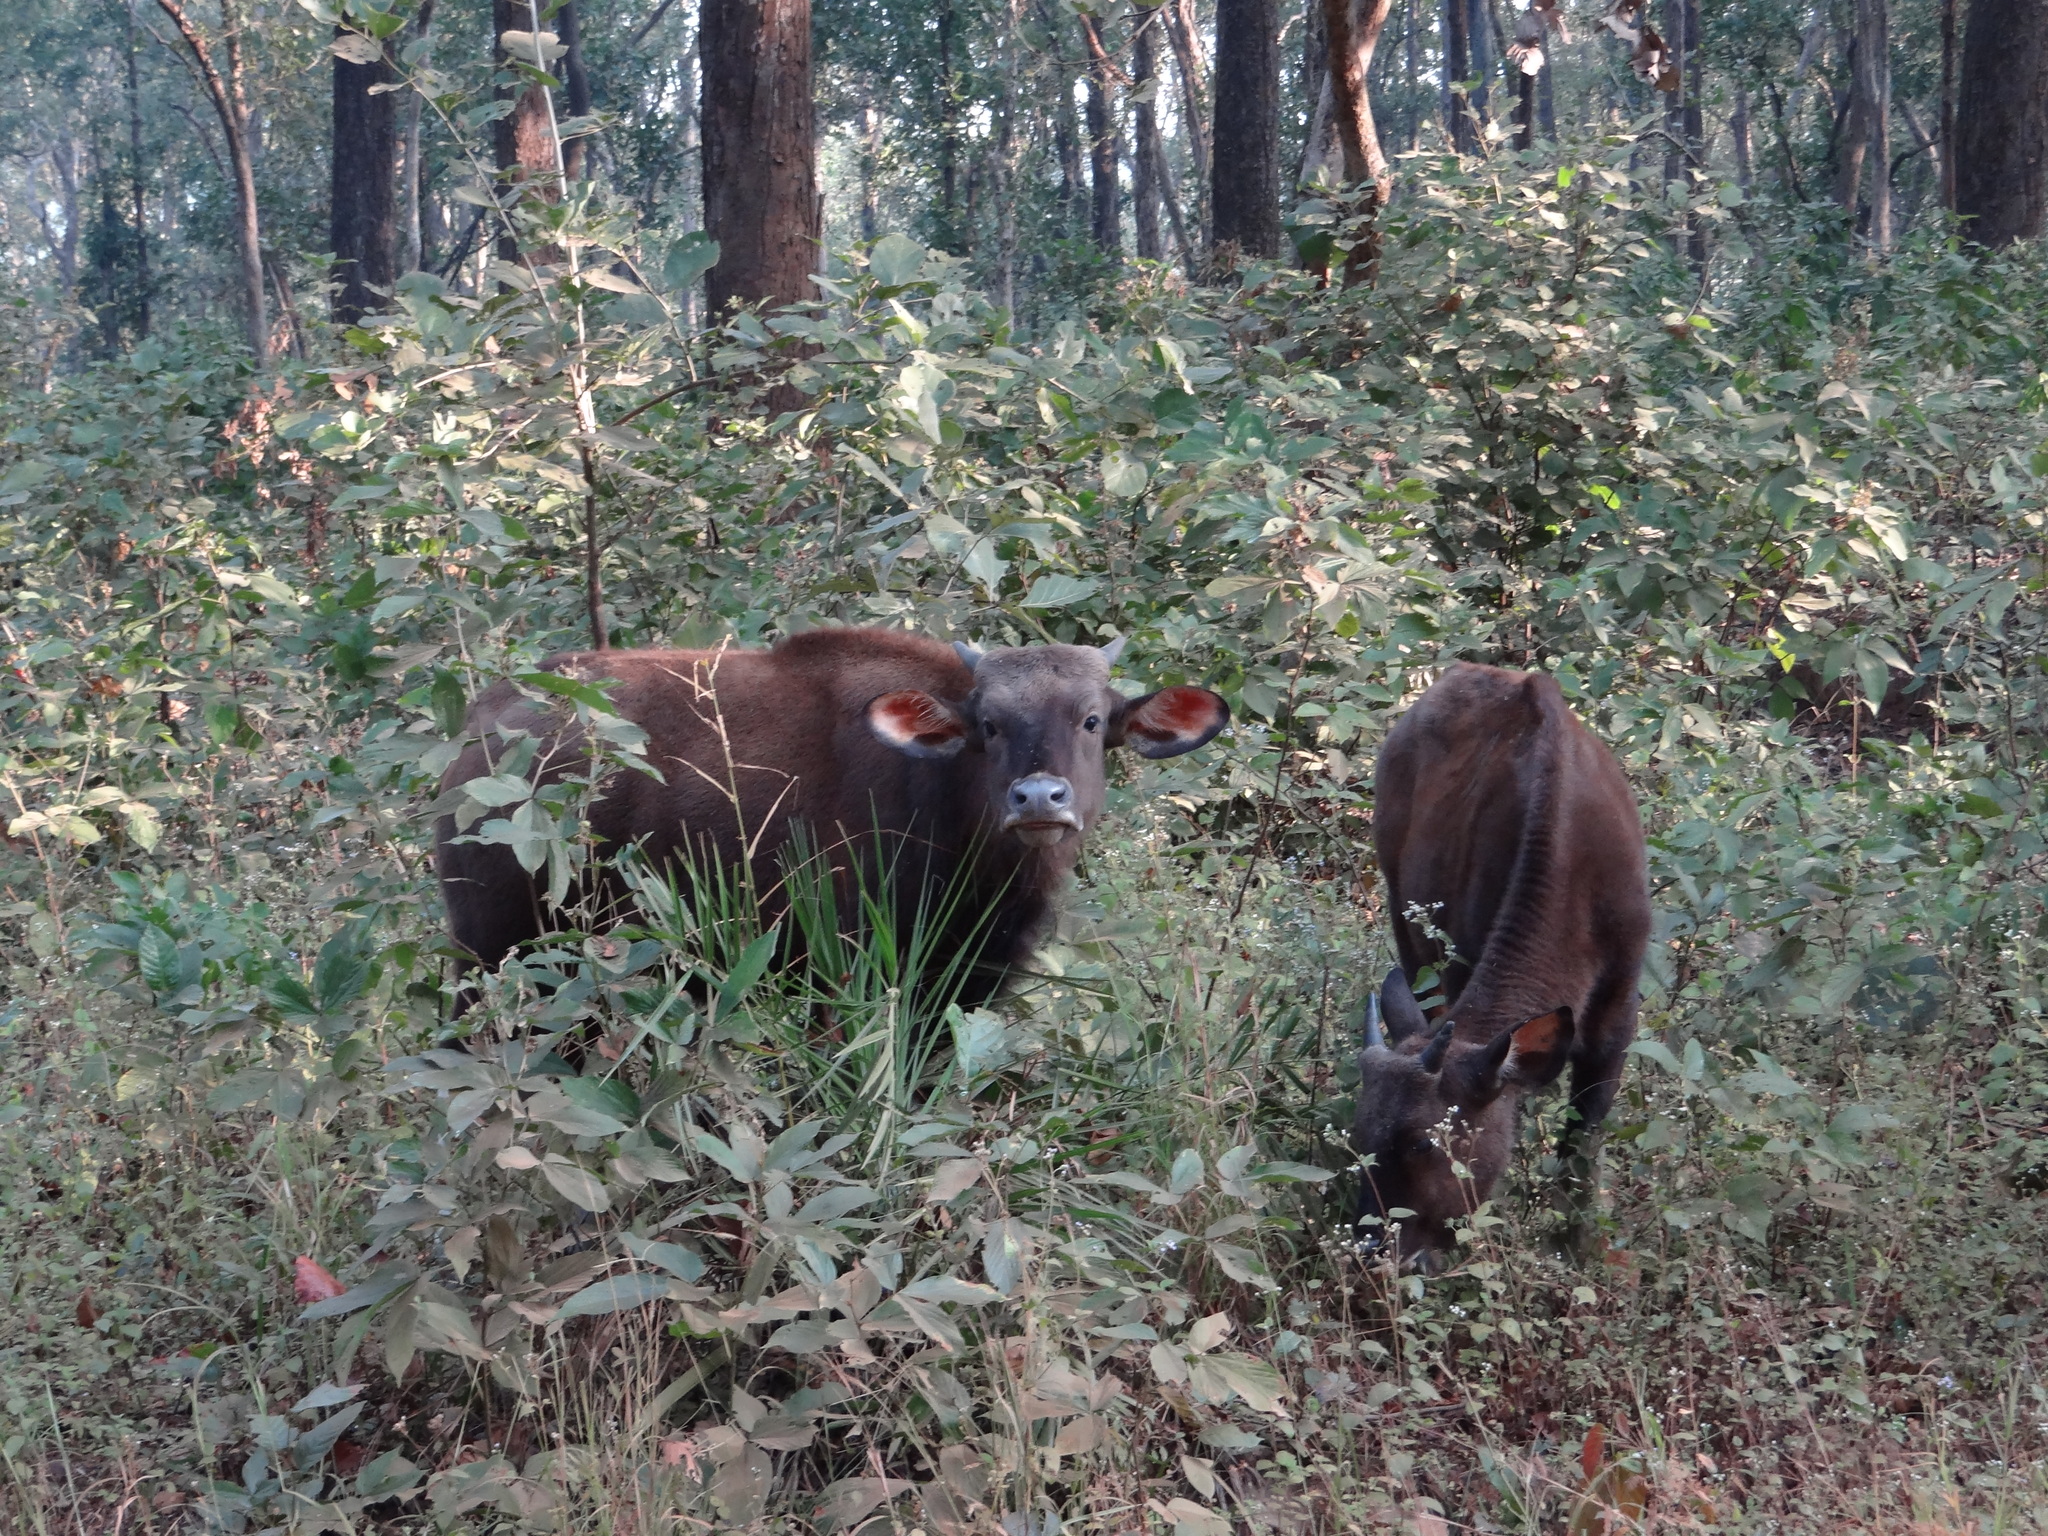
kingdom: Animalia
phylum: Chordata
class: Mammalia
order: Artiodactyla
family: Bovidae
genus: Bos
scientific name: Bos frontalis
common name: Gaur
